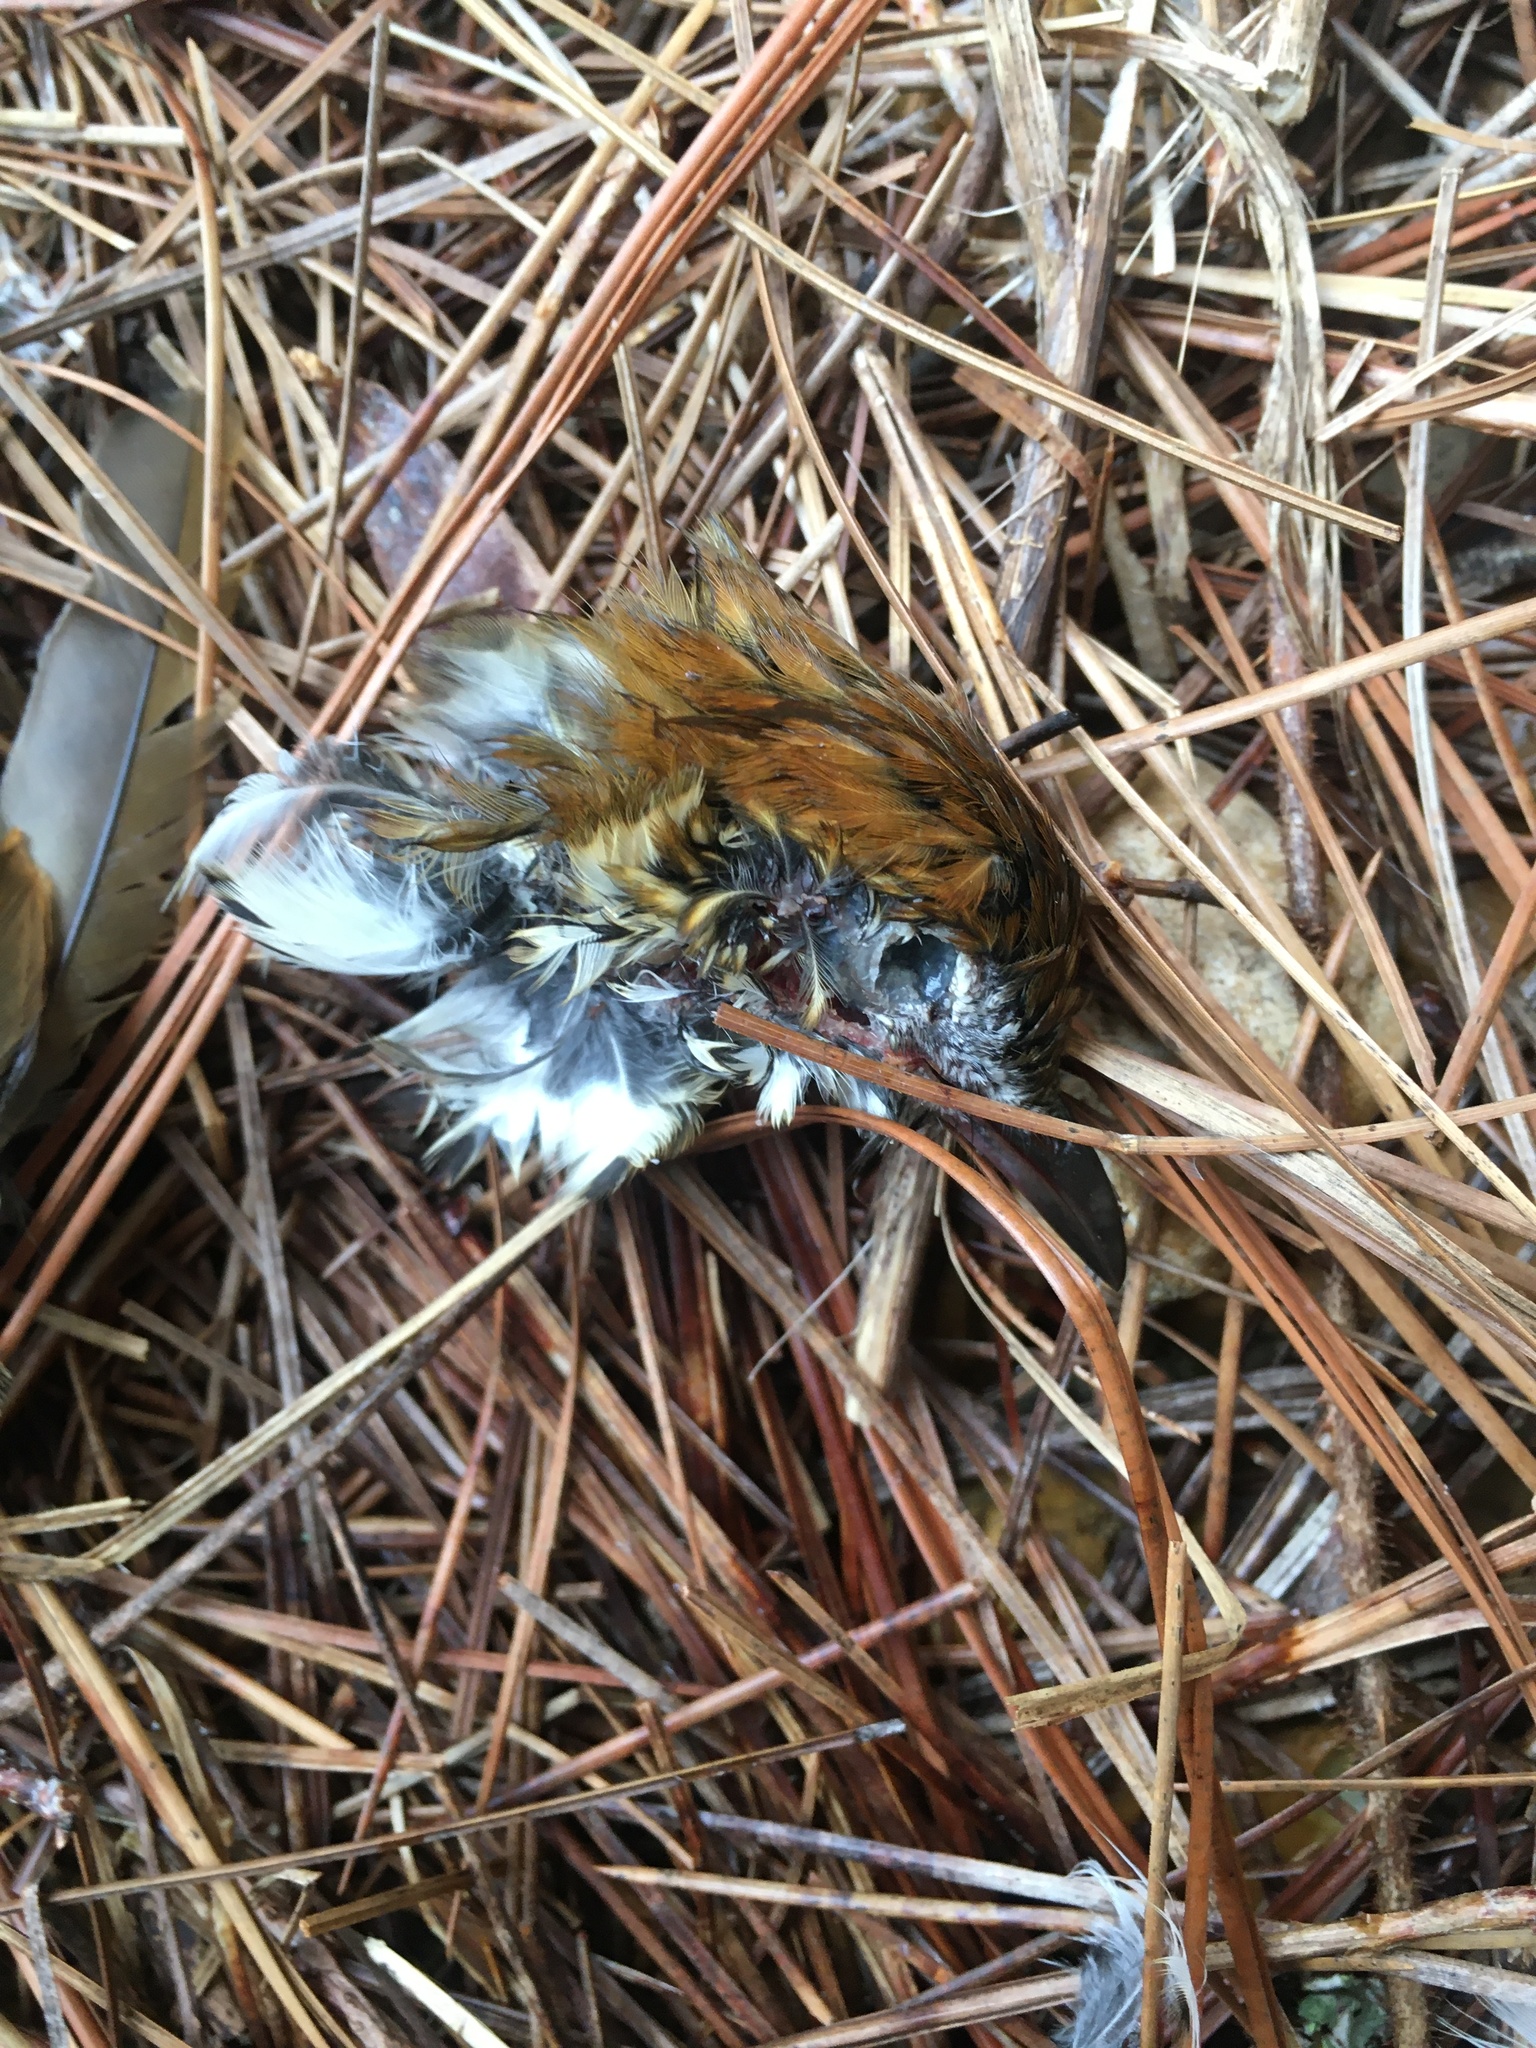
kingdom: Animalia
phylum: Chordata
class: Aves
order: Passeriformes
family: Turdidae
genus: Hylocichla
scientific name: Hylocichla mustelina
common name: Wood thrush
